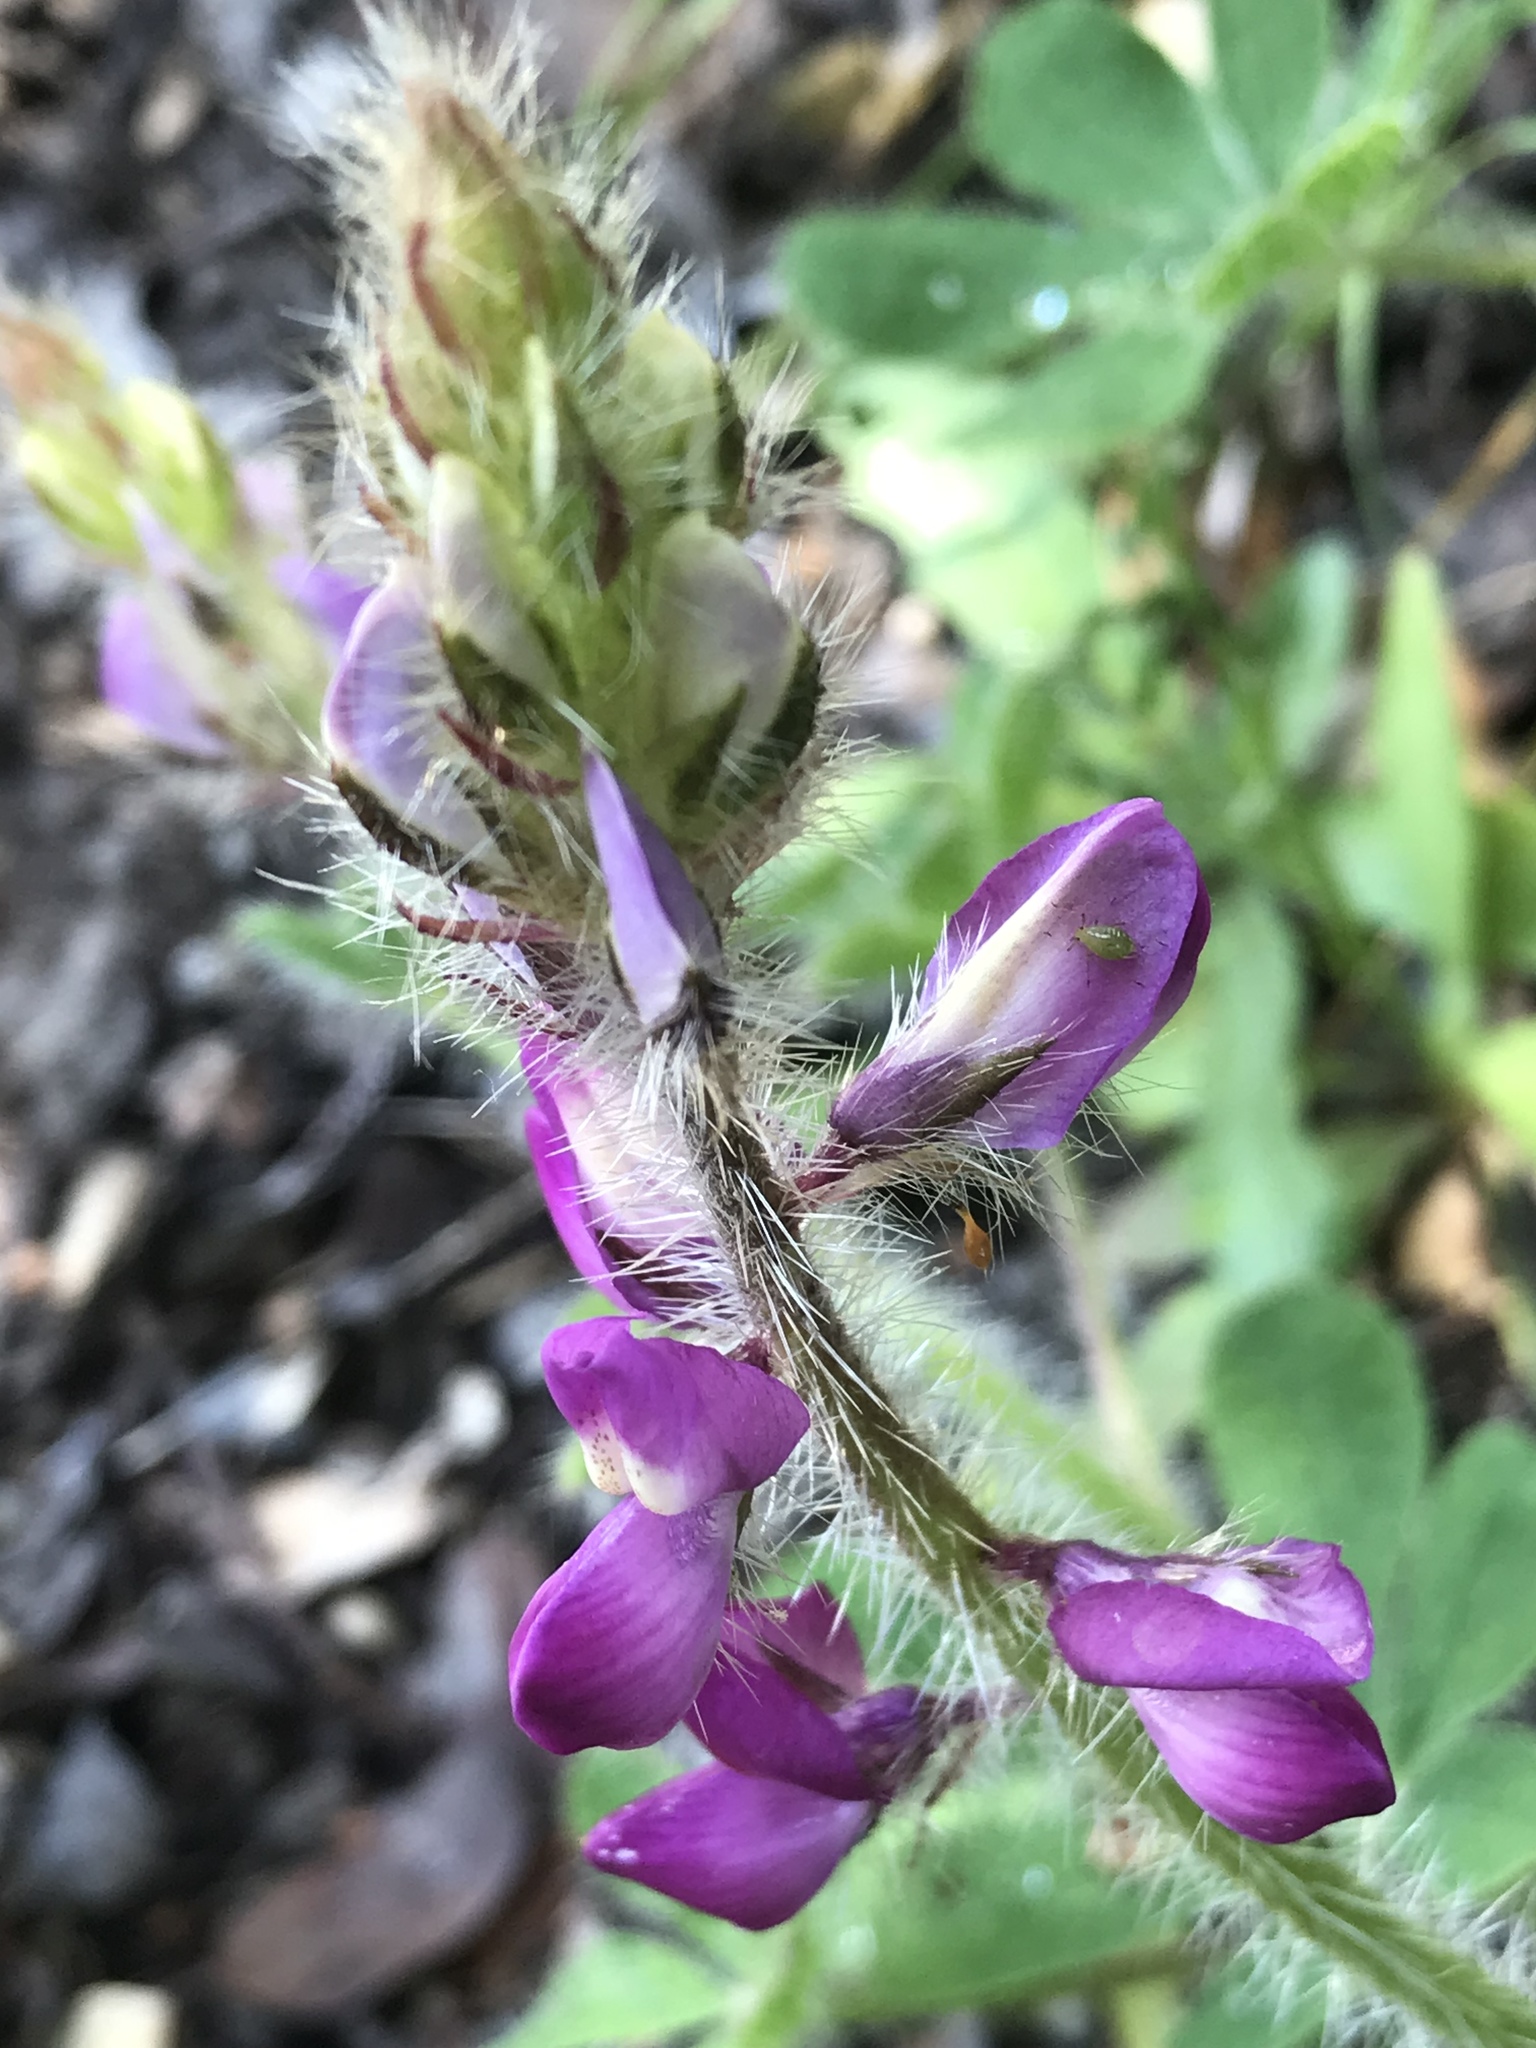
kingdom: Plantae
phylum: Tracheophyta
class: Magnoliopsida
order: Fabales
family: Fabaceae
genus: Lupinus
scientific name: Lupinus hirsutissimus
